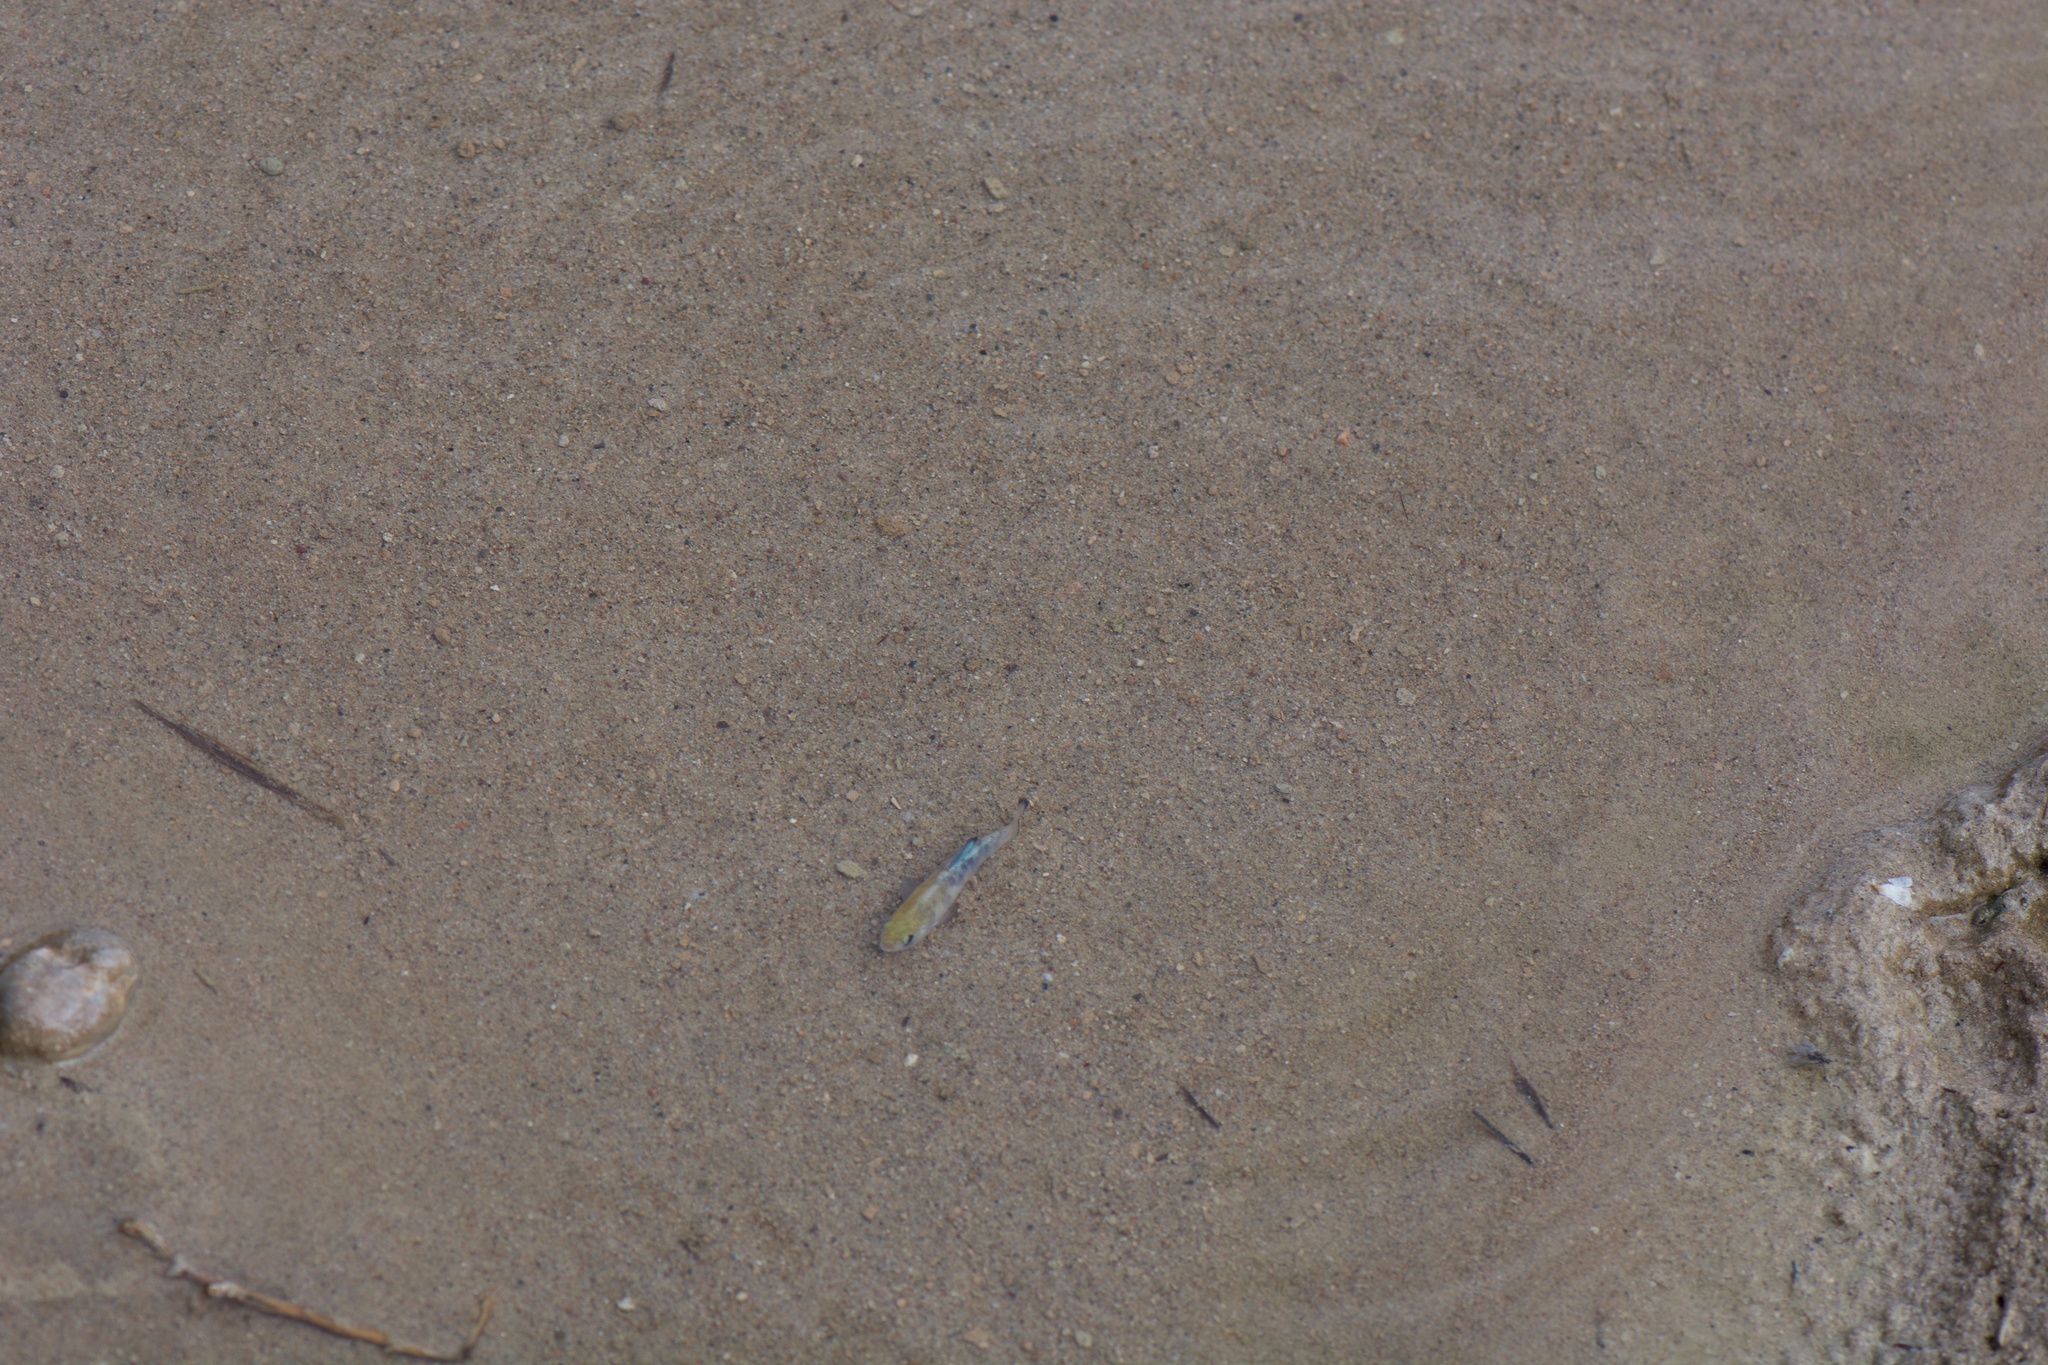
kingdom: Animalia
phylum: Chordata
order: Cyprinodontiformes
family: Cyprinodontidae
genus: Cyprinodon
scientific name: Cyprinodon salinus
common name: Cottonball marsh pupfish
